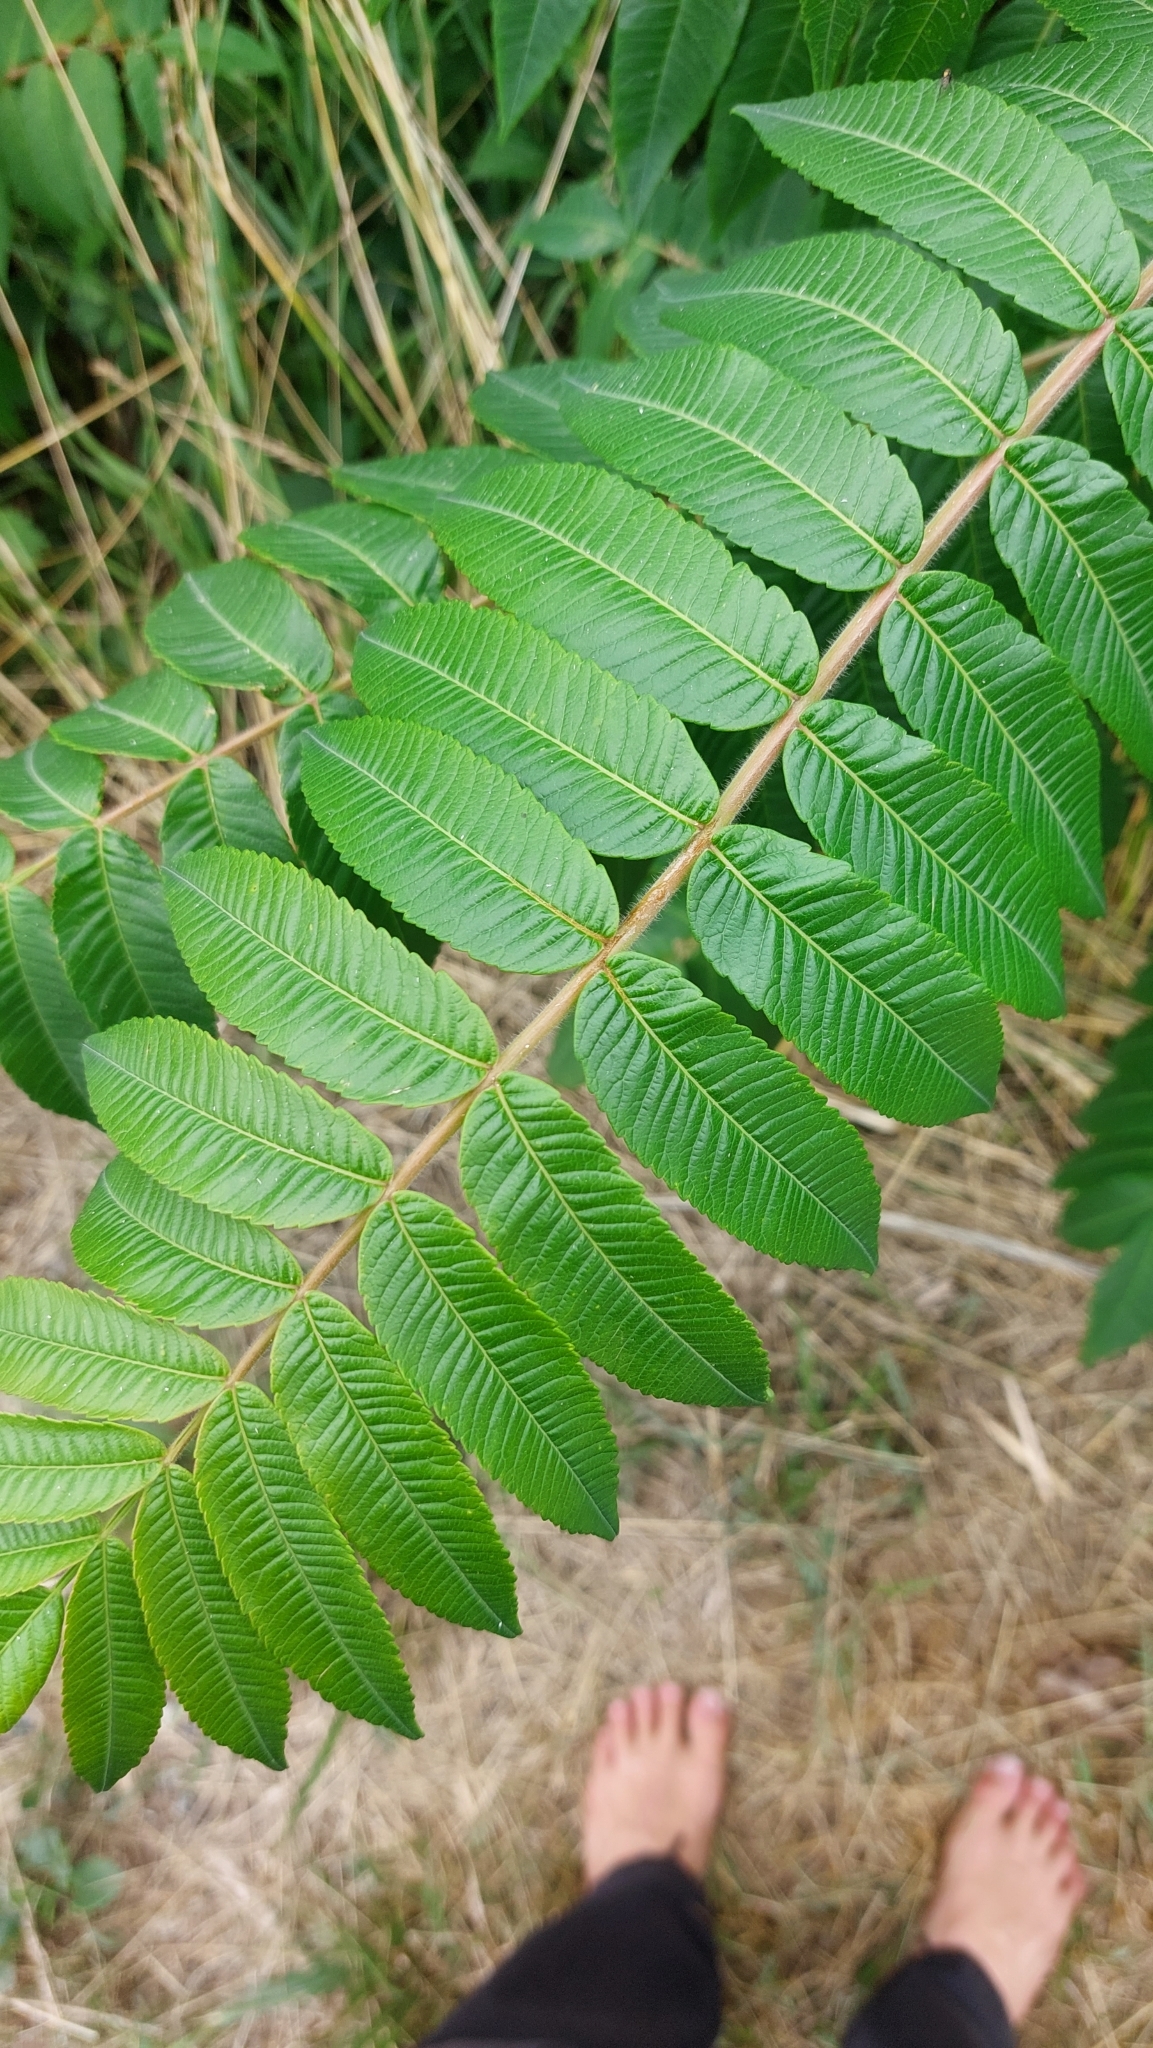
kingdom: Plantae
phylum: Tracheophyta
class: Magnoliopsida
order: Sapindales
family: Anacardiaceae
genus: Rhus
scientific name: Rhus typhina
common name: Staghorn sumac
